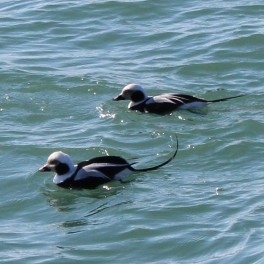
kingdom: Animalia
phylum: Chordata
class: Aves
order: Anseriformes
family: Anatidae
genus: Clangula
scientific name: Clangula hyemalis
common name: Long-tailed duck
